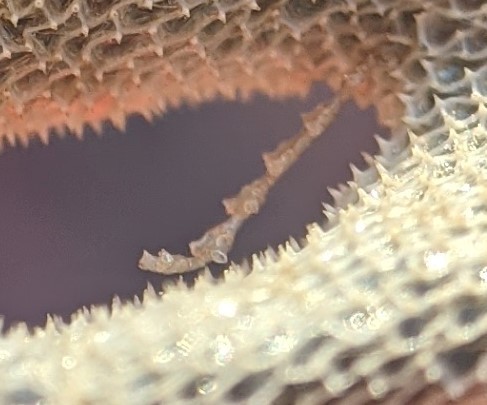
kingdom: Animalia
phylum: Cnidaria
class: Hydrozoa
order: Leptothecata
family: Sertulariidae
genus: Dynamena
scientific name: Dynamena pumila
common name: Sea oak
